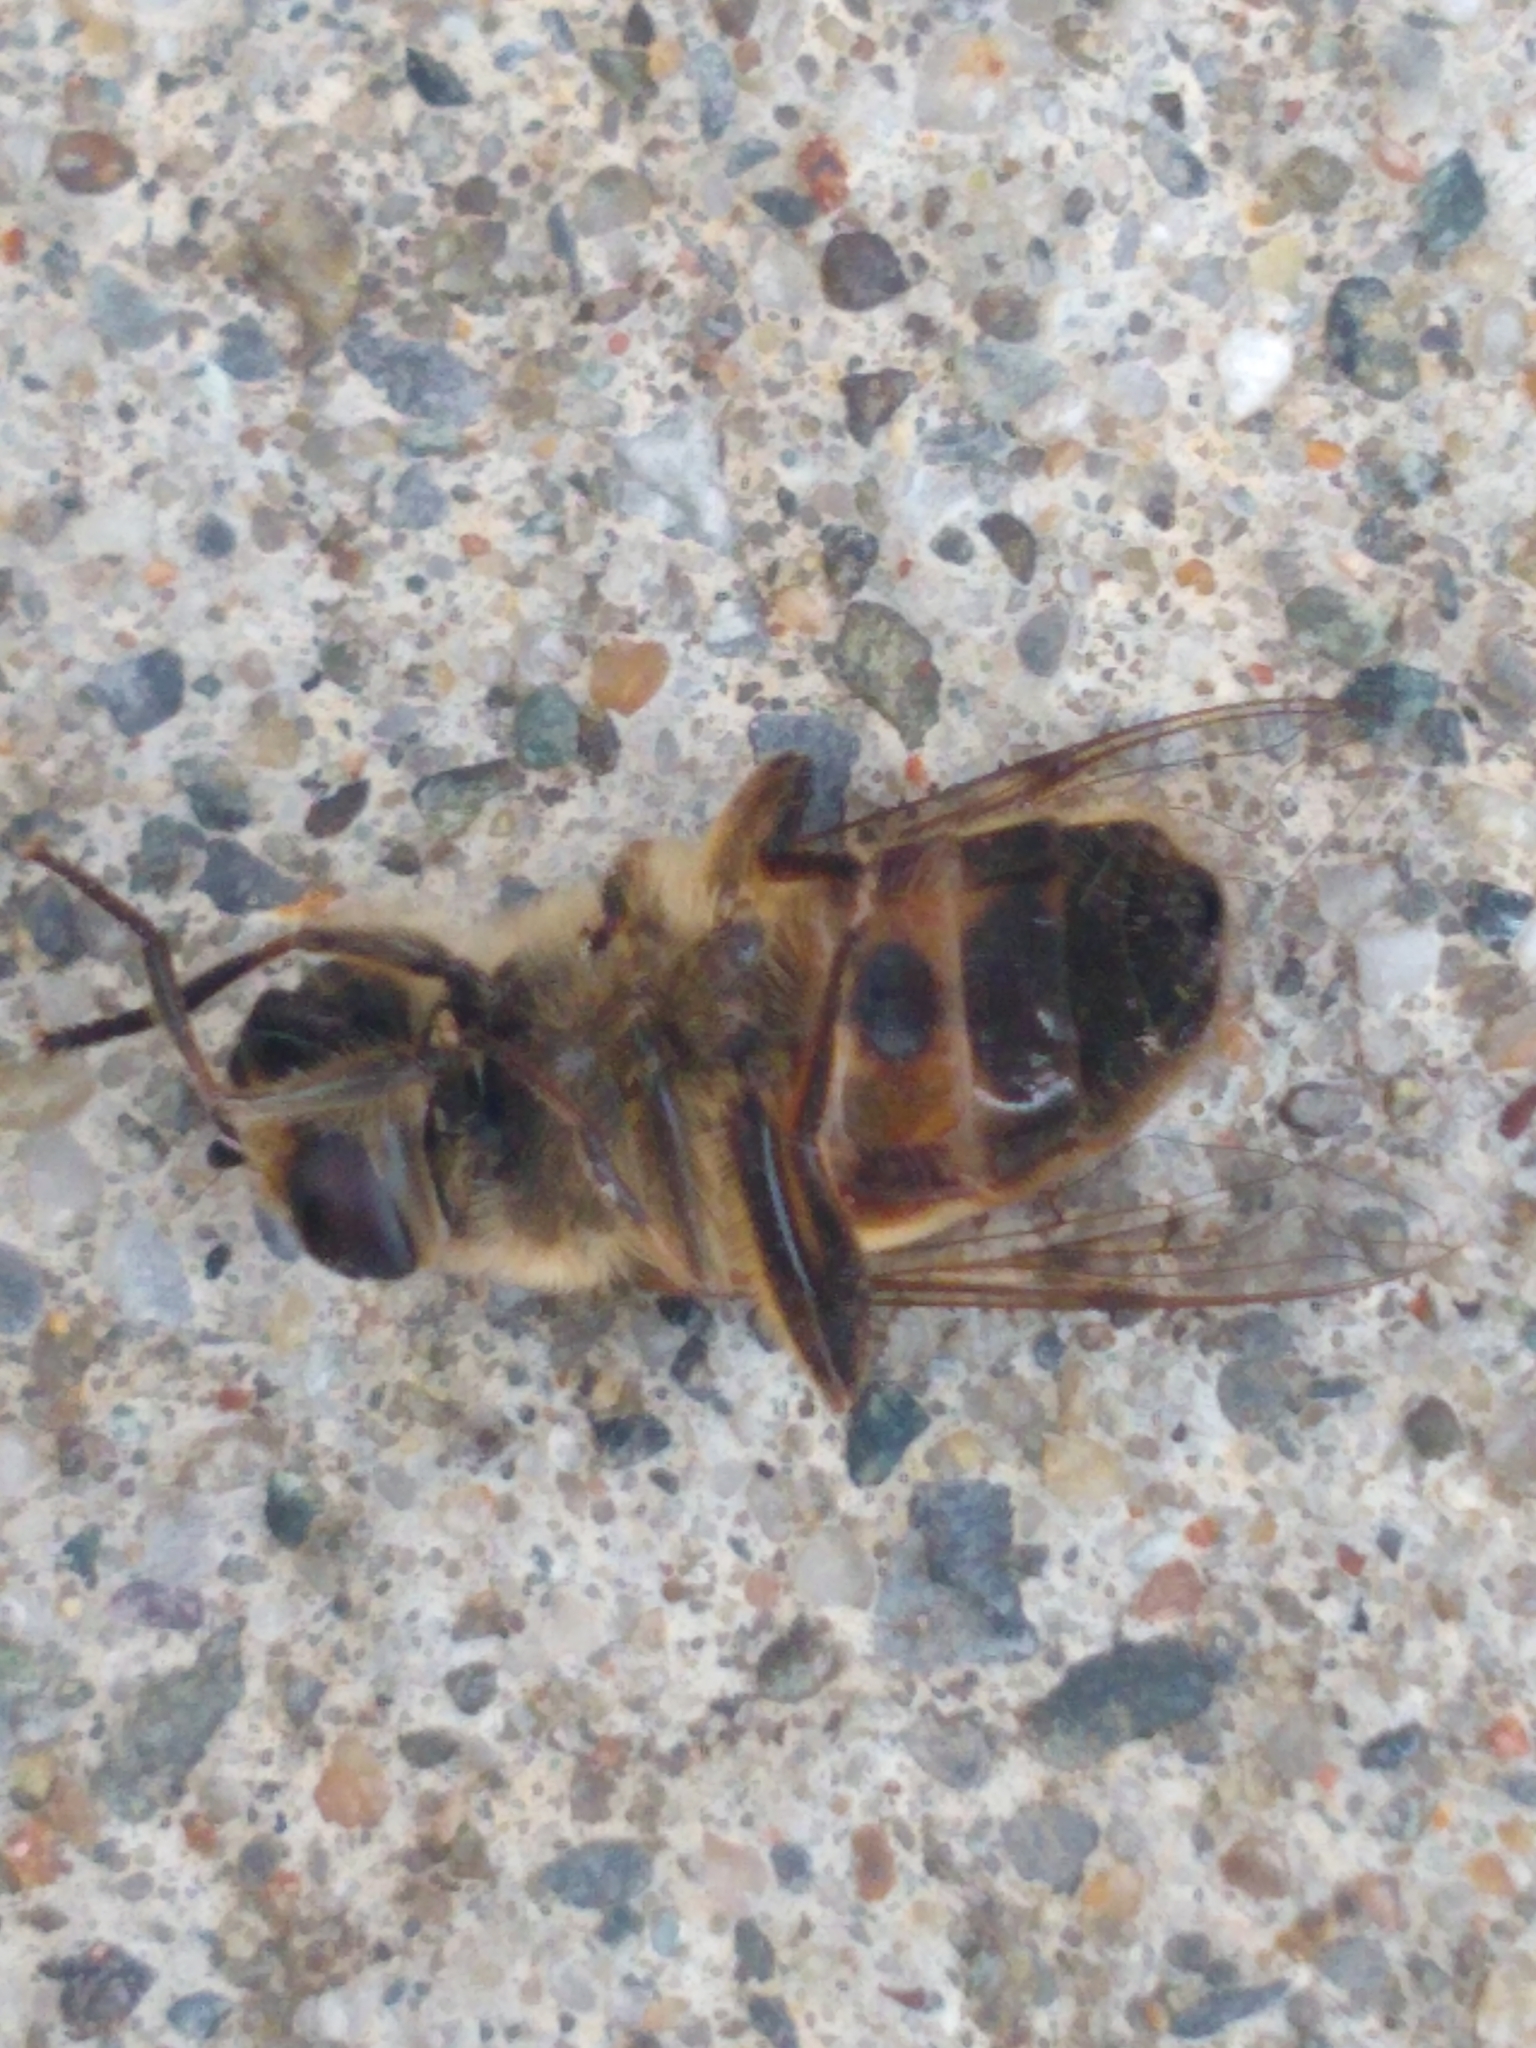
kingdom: Animalia
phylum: Arthropoda
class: Insecta
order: Diptera
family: Syrphidae
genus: Eristalis
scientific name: Eristalis tenax
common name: Drone fly
